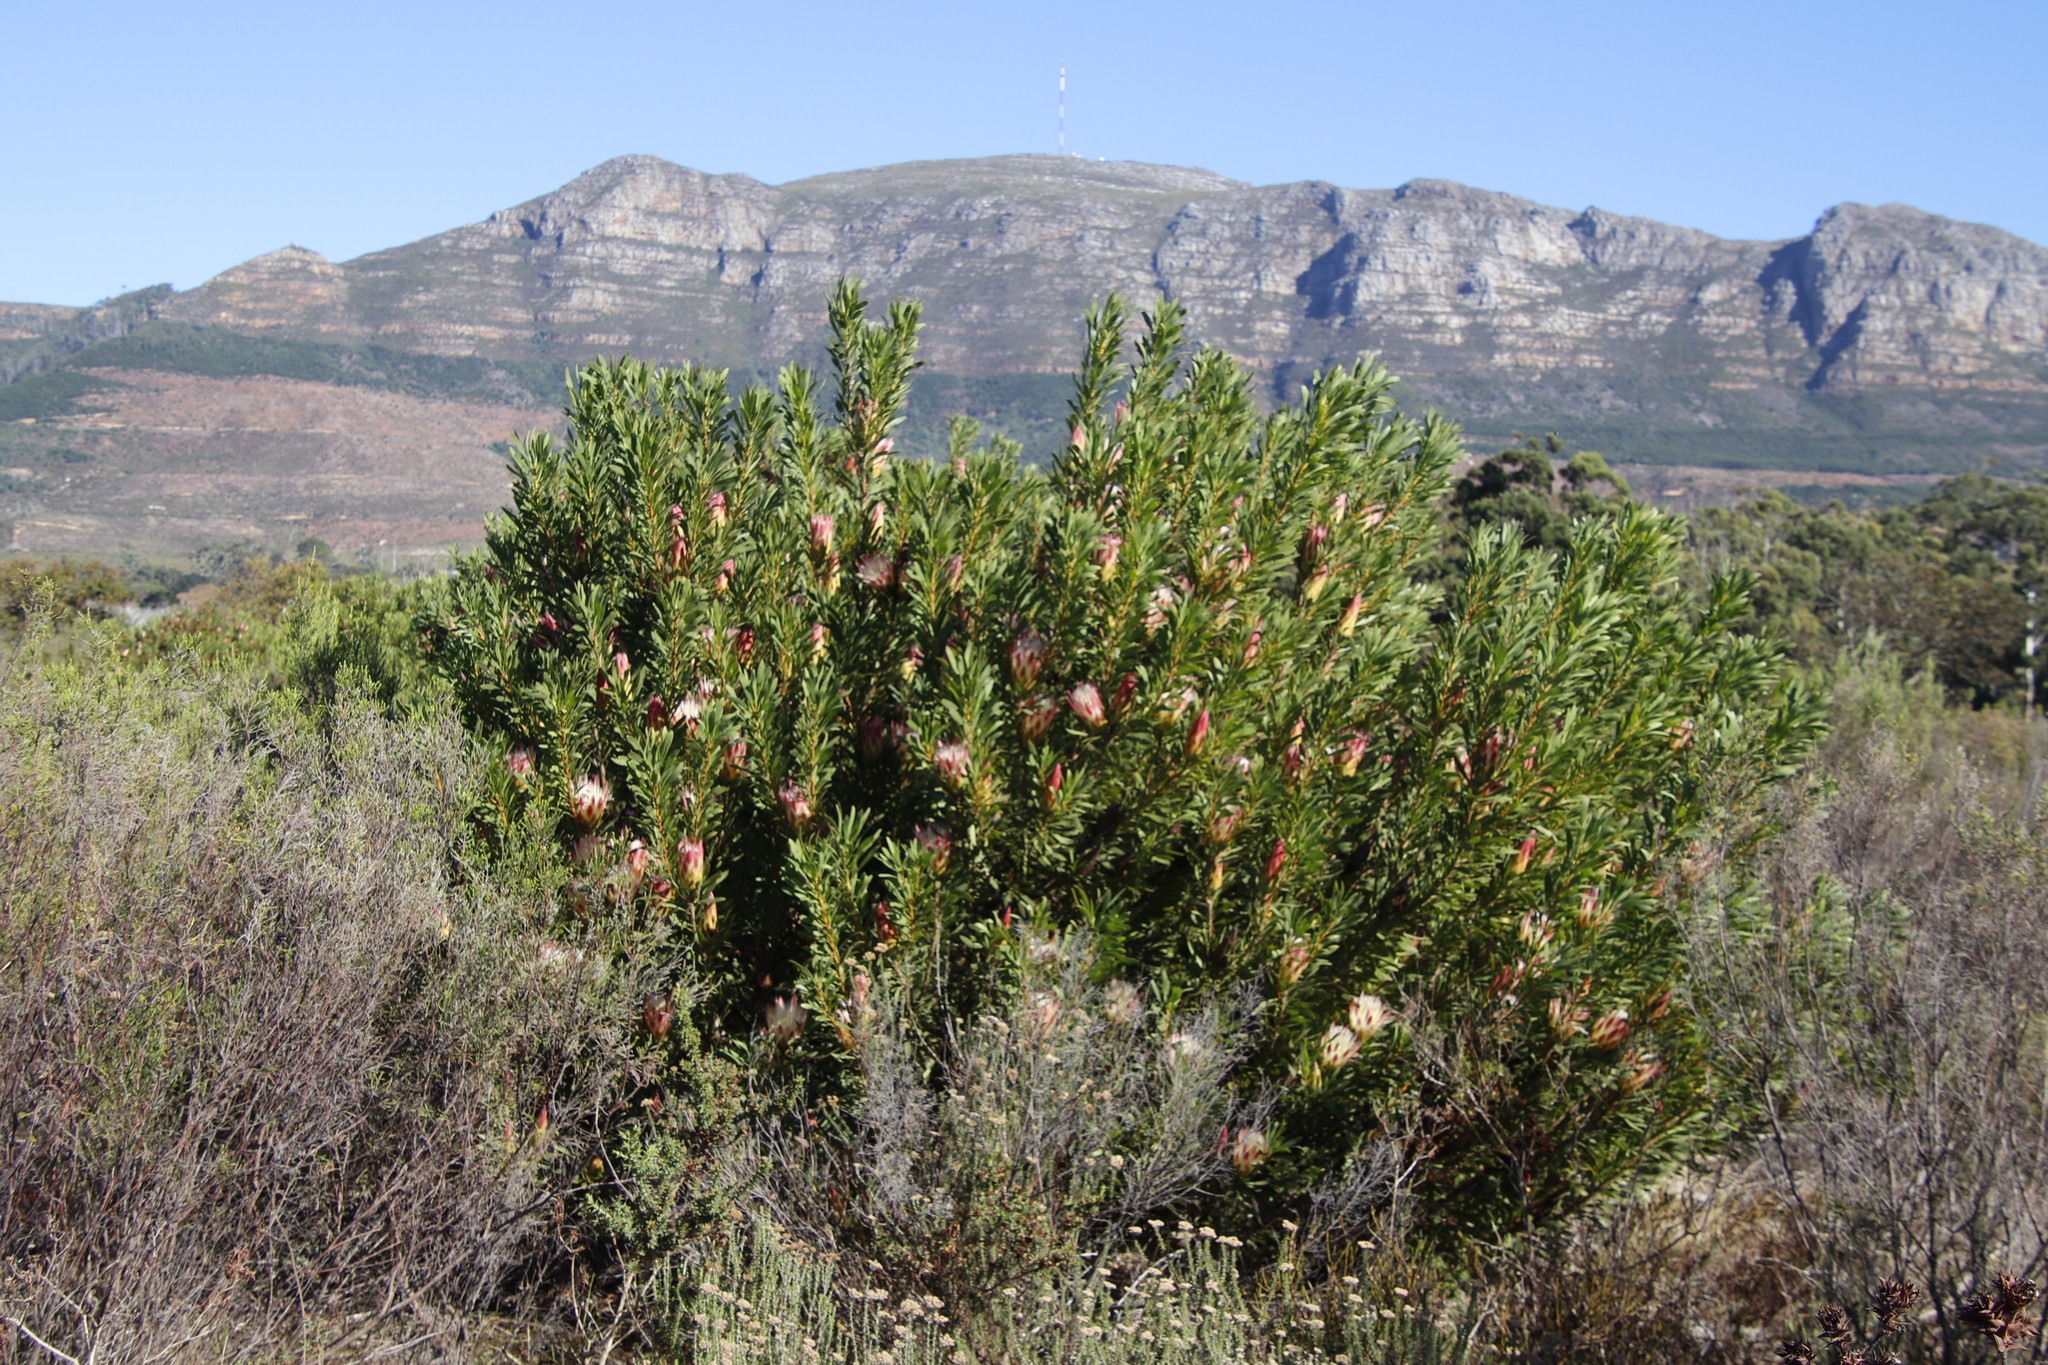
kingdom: Plantae
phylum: Tracheophyta
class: Magnoliopsida
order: Proteales
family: Proteaceae
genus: Protea
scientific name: Protea repens
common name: Sugarbush
